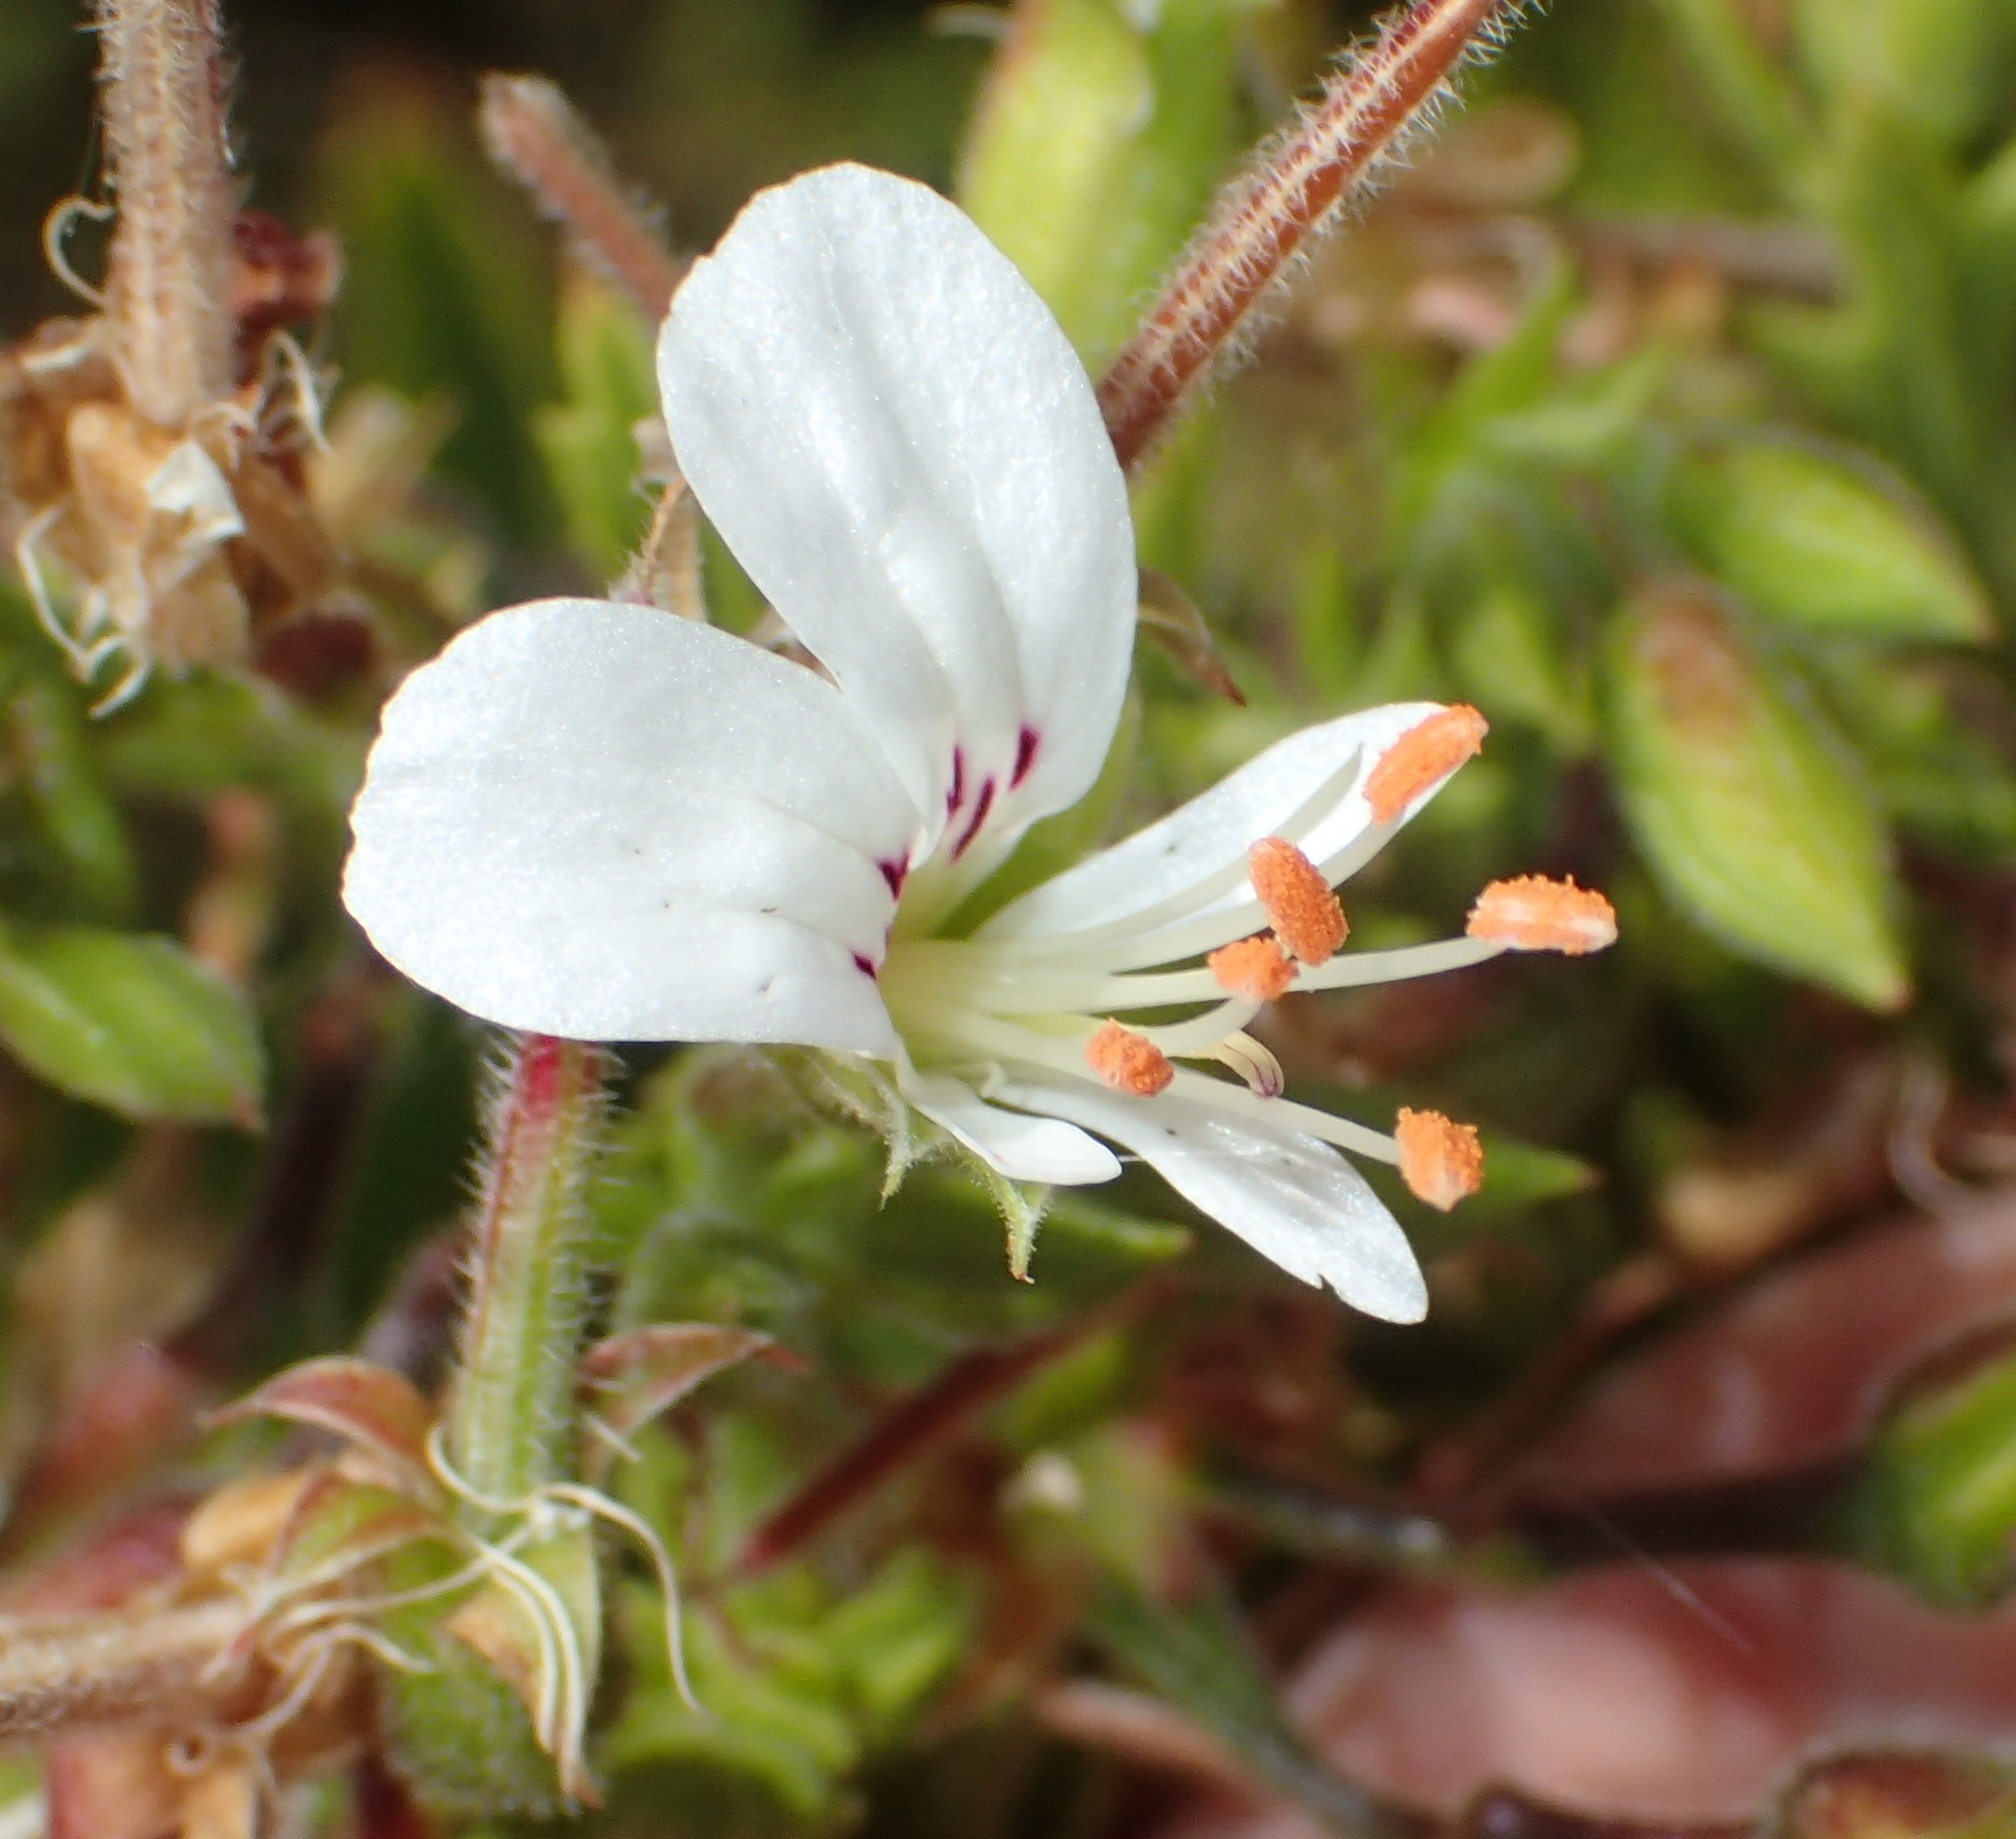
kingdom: Plantae
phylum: Tracheophyta
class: Magnoliopsida
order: Geraniales
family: Geraniaceae
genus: Pelargonium
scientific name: Pelargonium ribifolium
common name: Currant-leaf pelargonium
